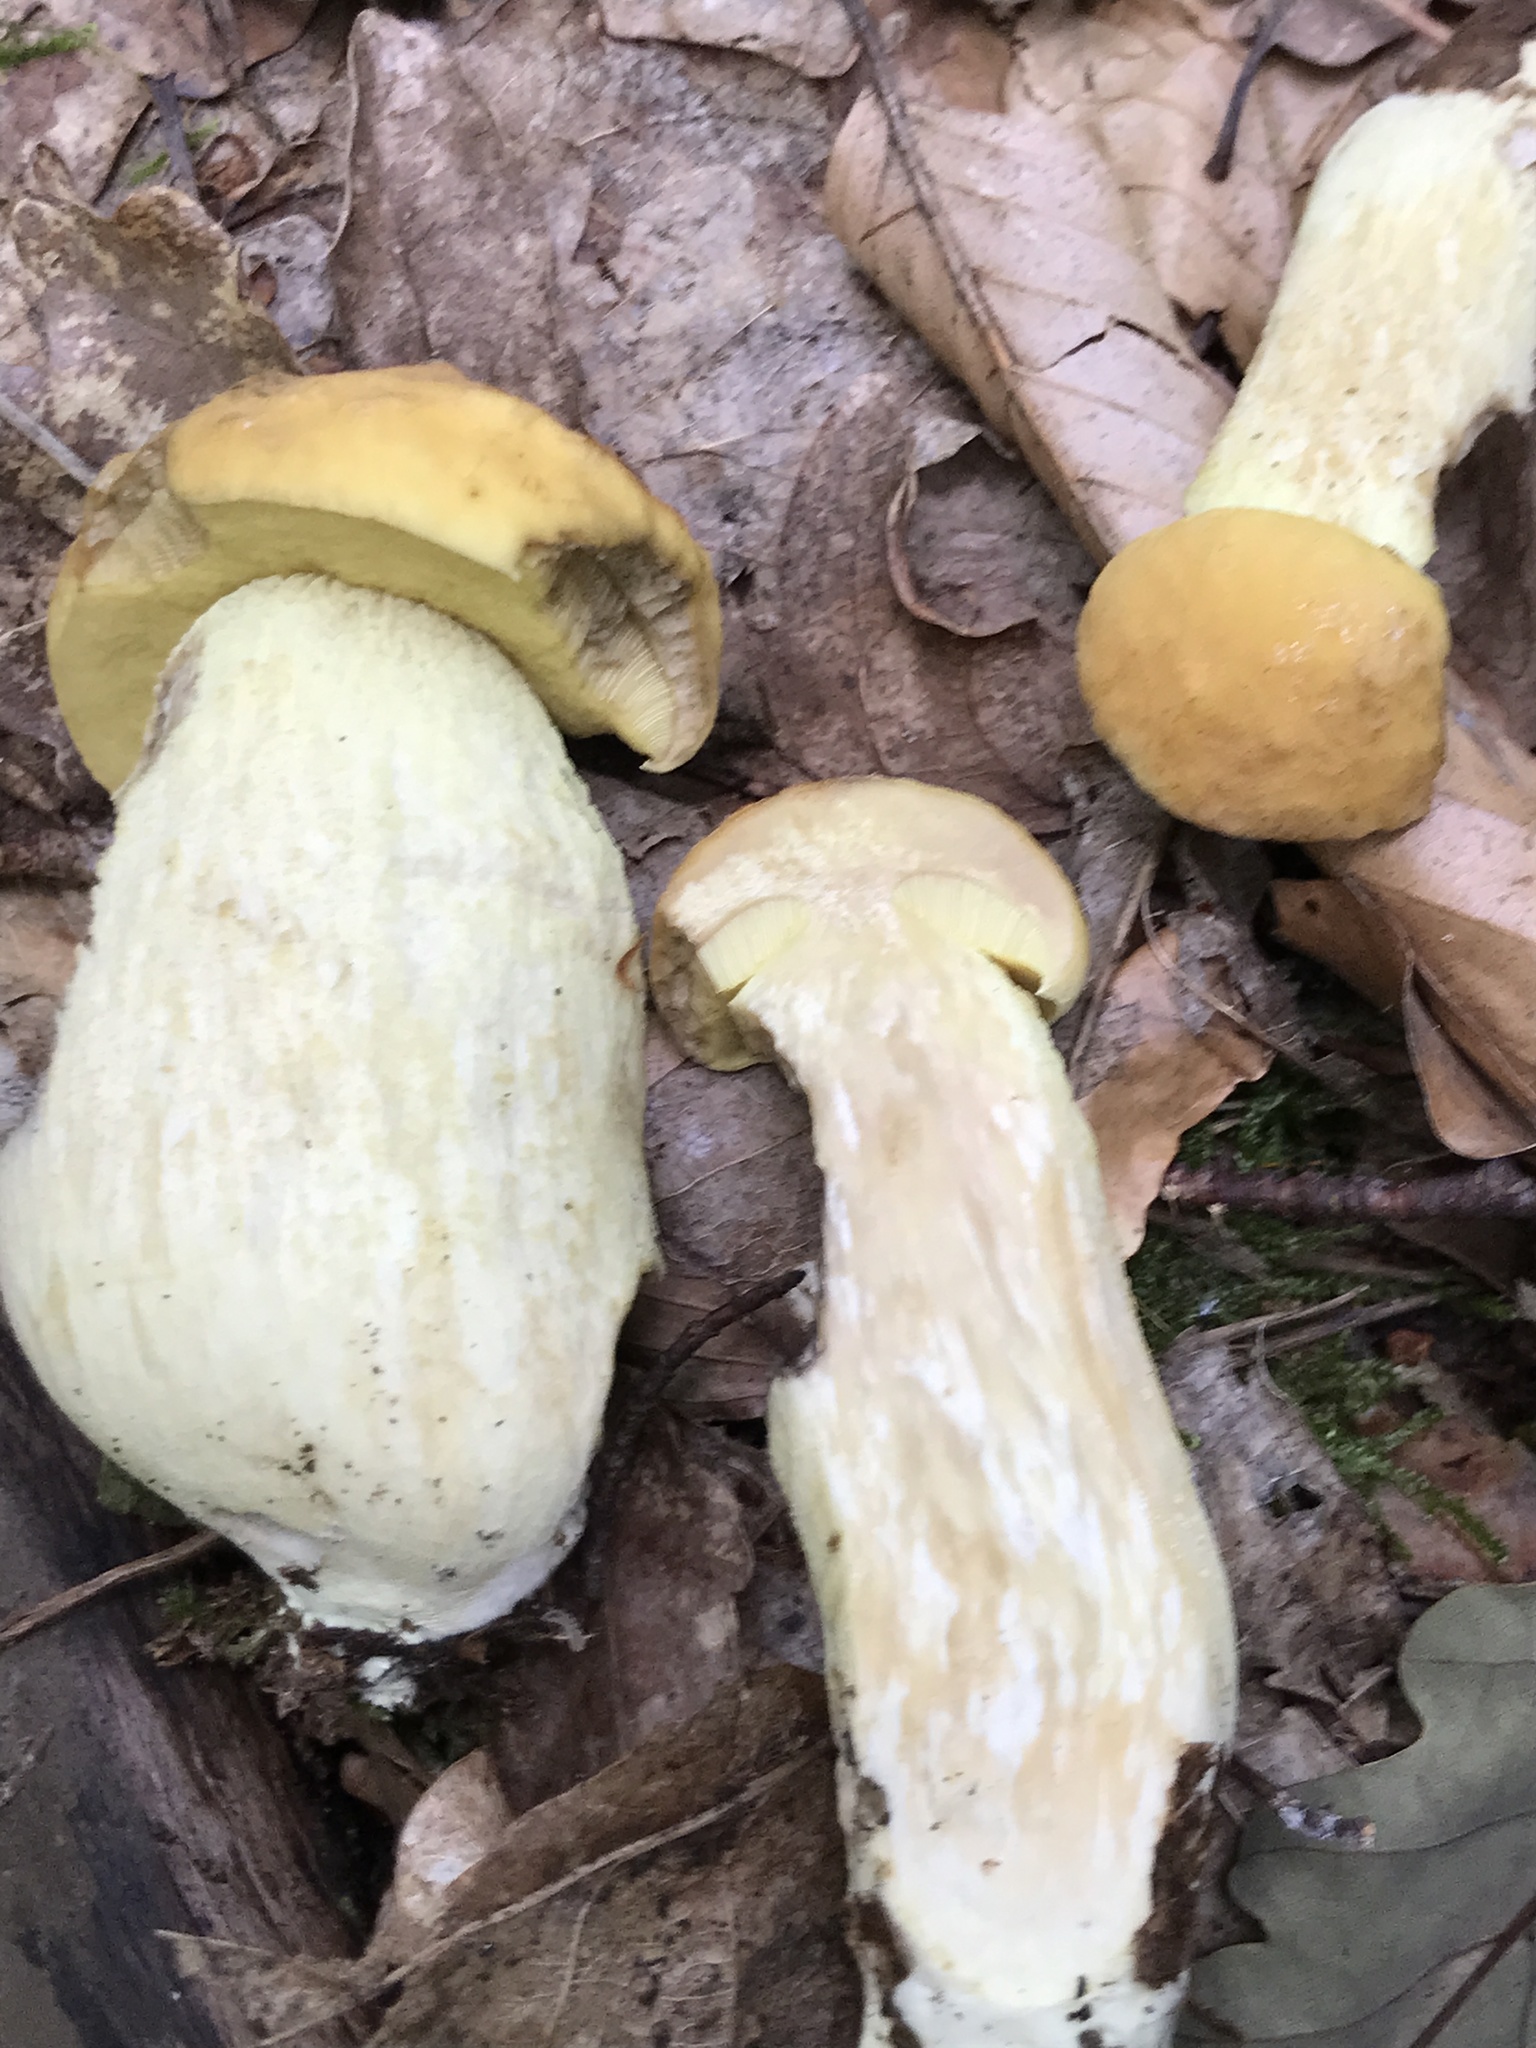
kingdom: Fungi
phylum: Basidiomycota
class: Agaricomycetes
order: Boletales
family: Boletaceae
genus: Leccinellum
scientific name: Leccinellum crocipodium
